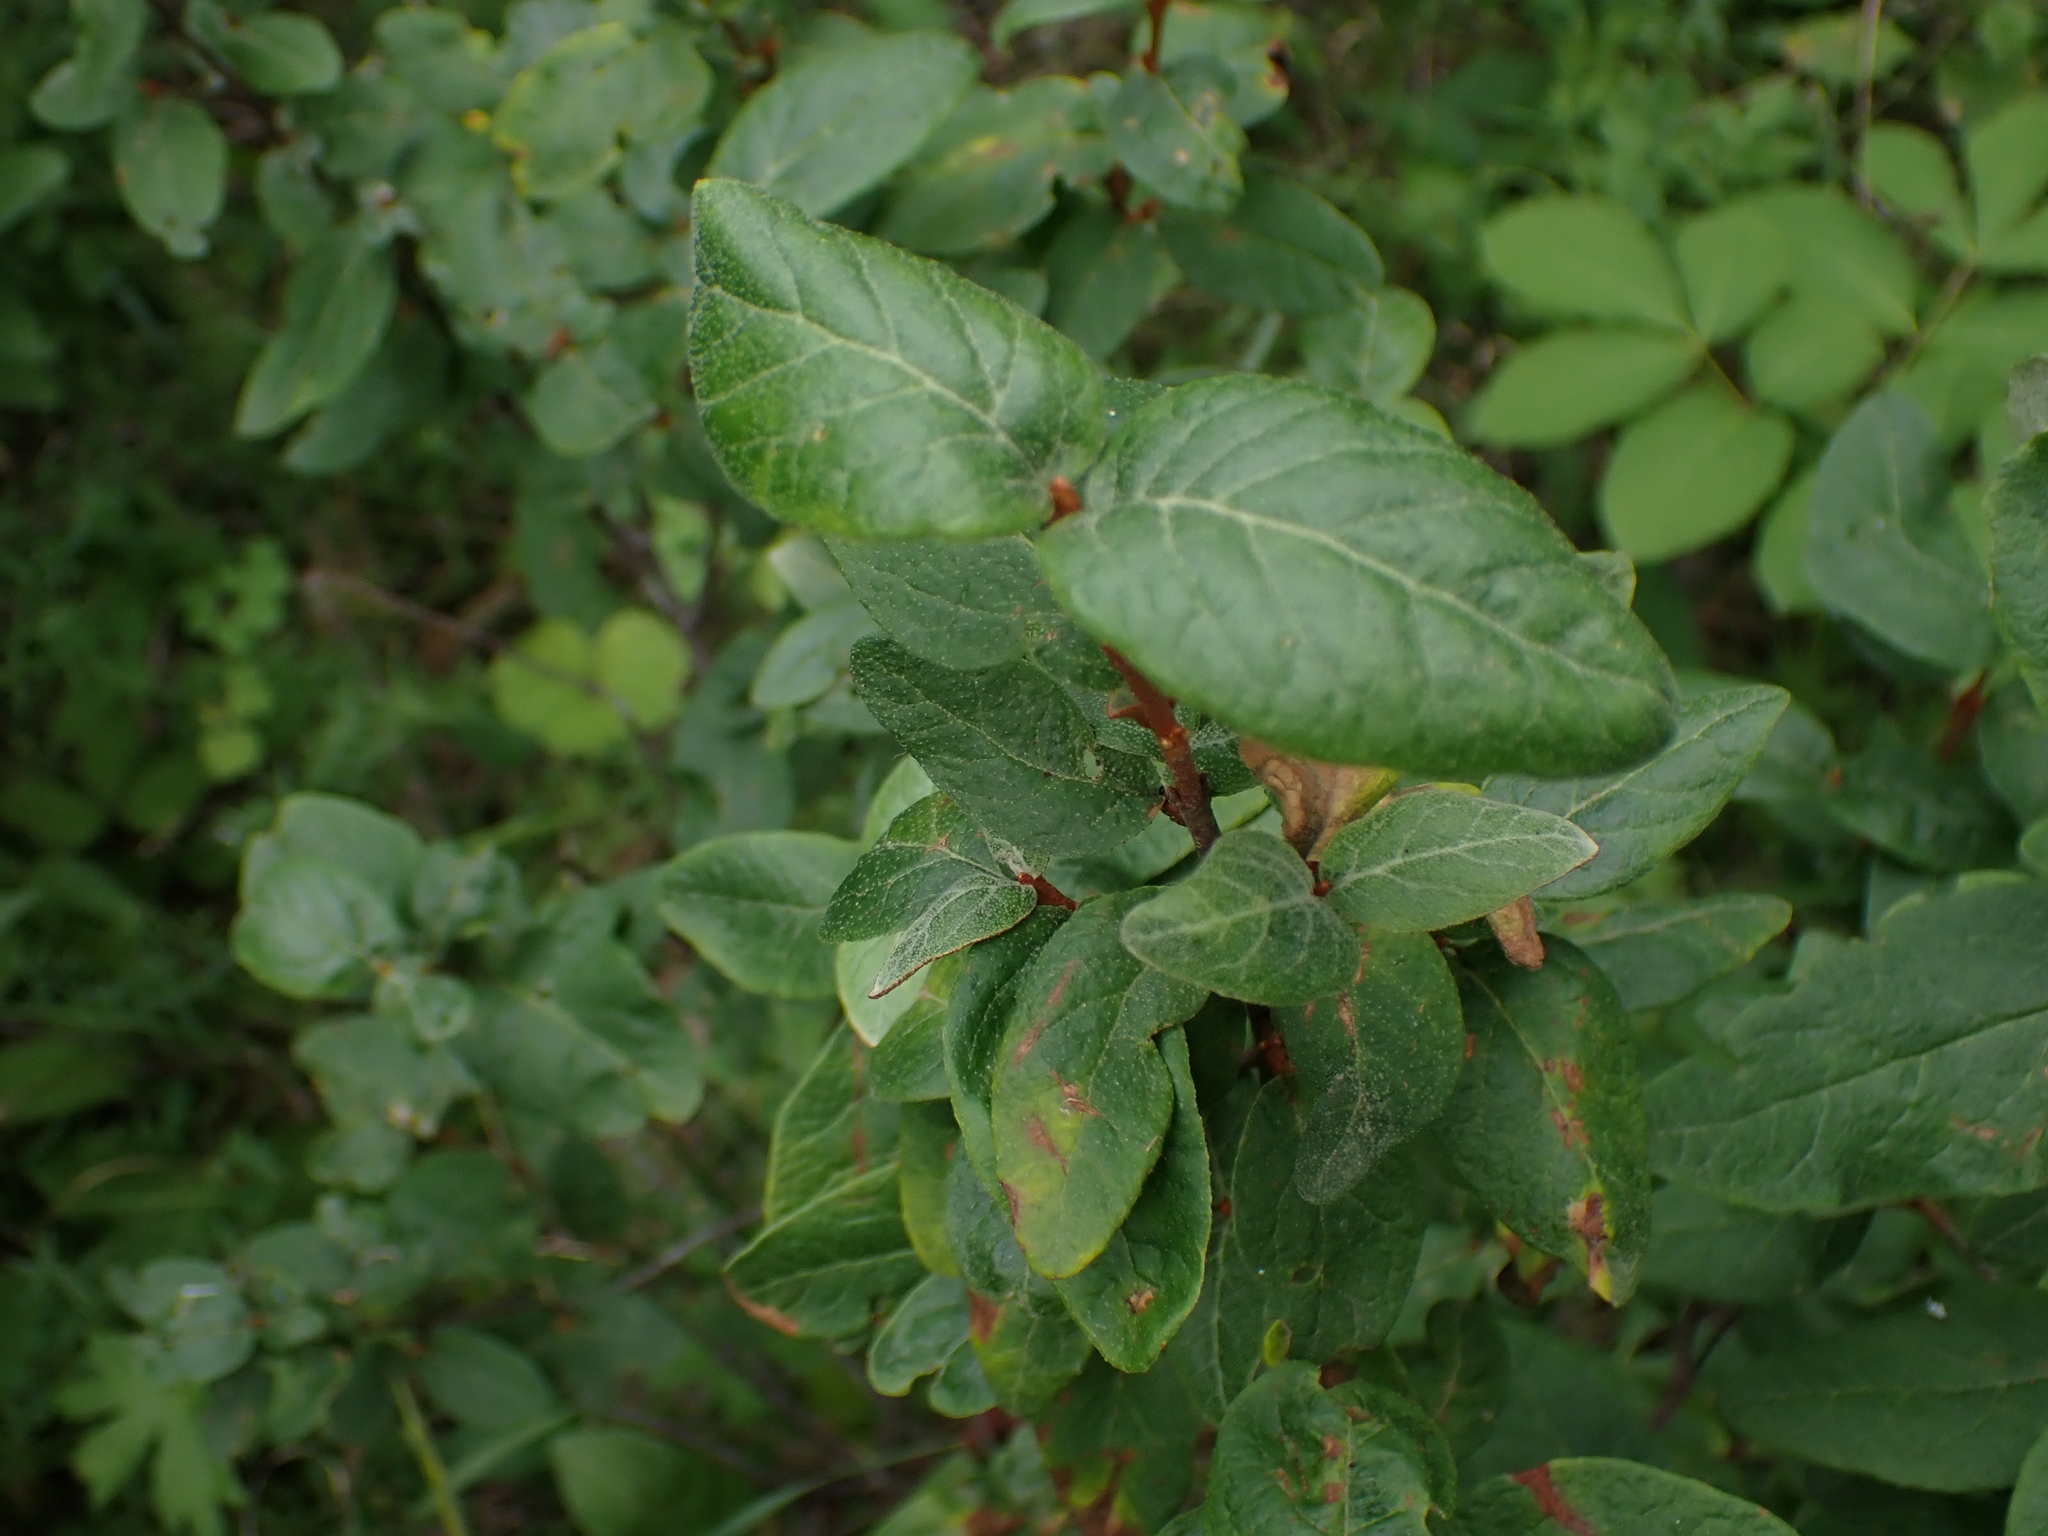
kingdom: Plantae
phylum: Tracheophyta
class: Magnoliopsida
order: Rosales
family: Elaeagnaceae
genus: Shepherdia
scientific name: Shepherdia canadensis
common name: Soapberry
